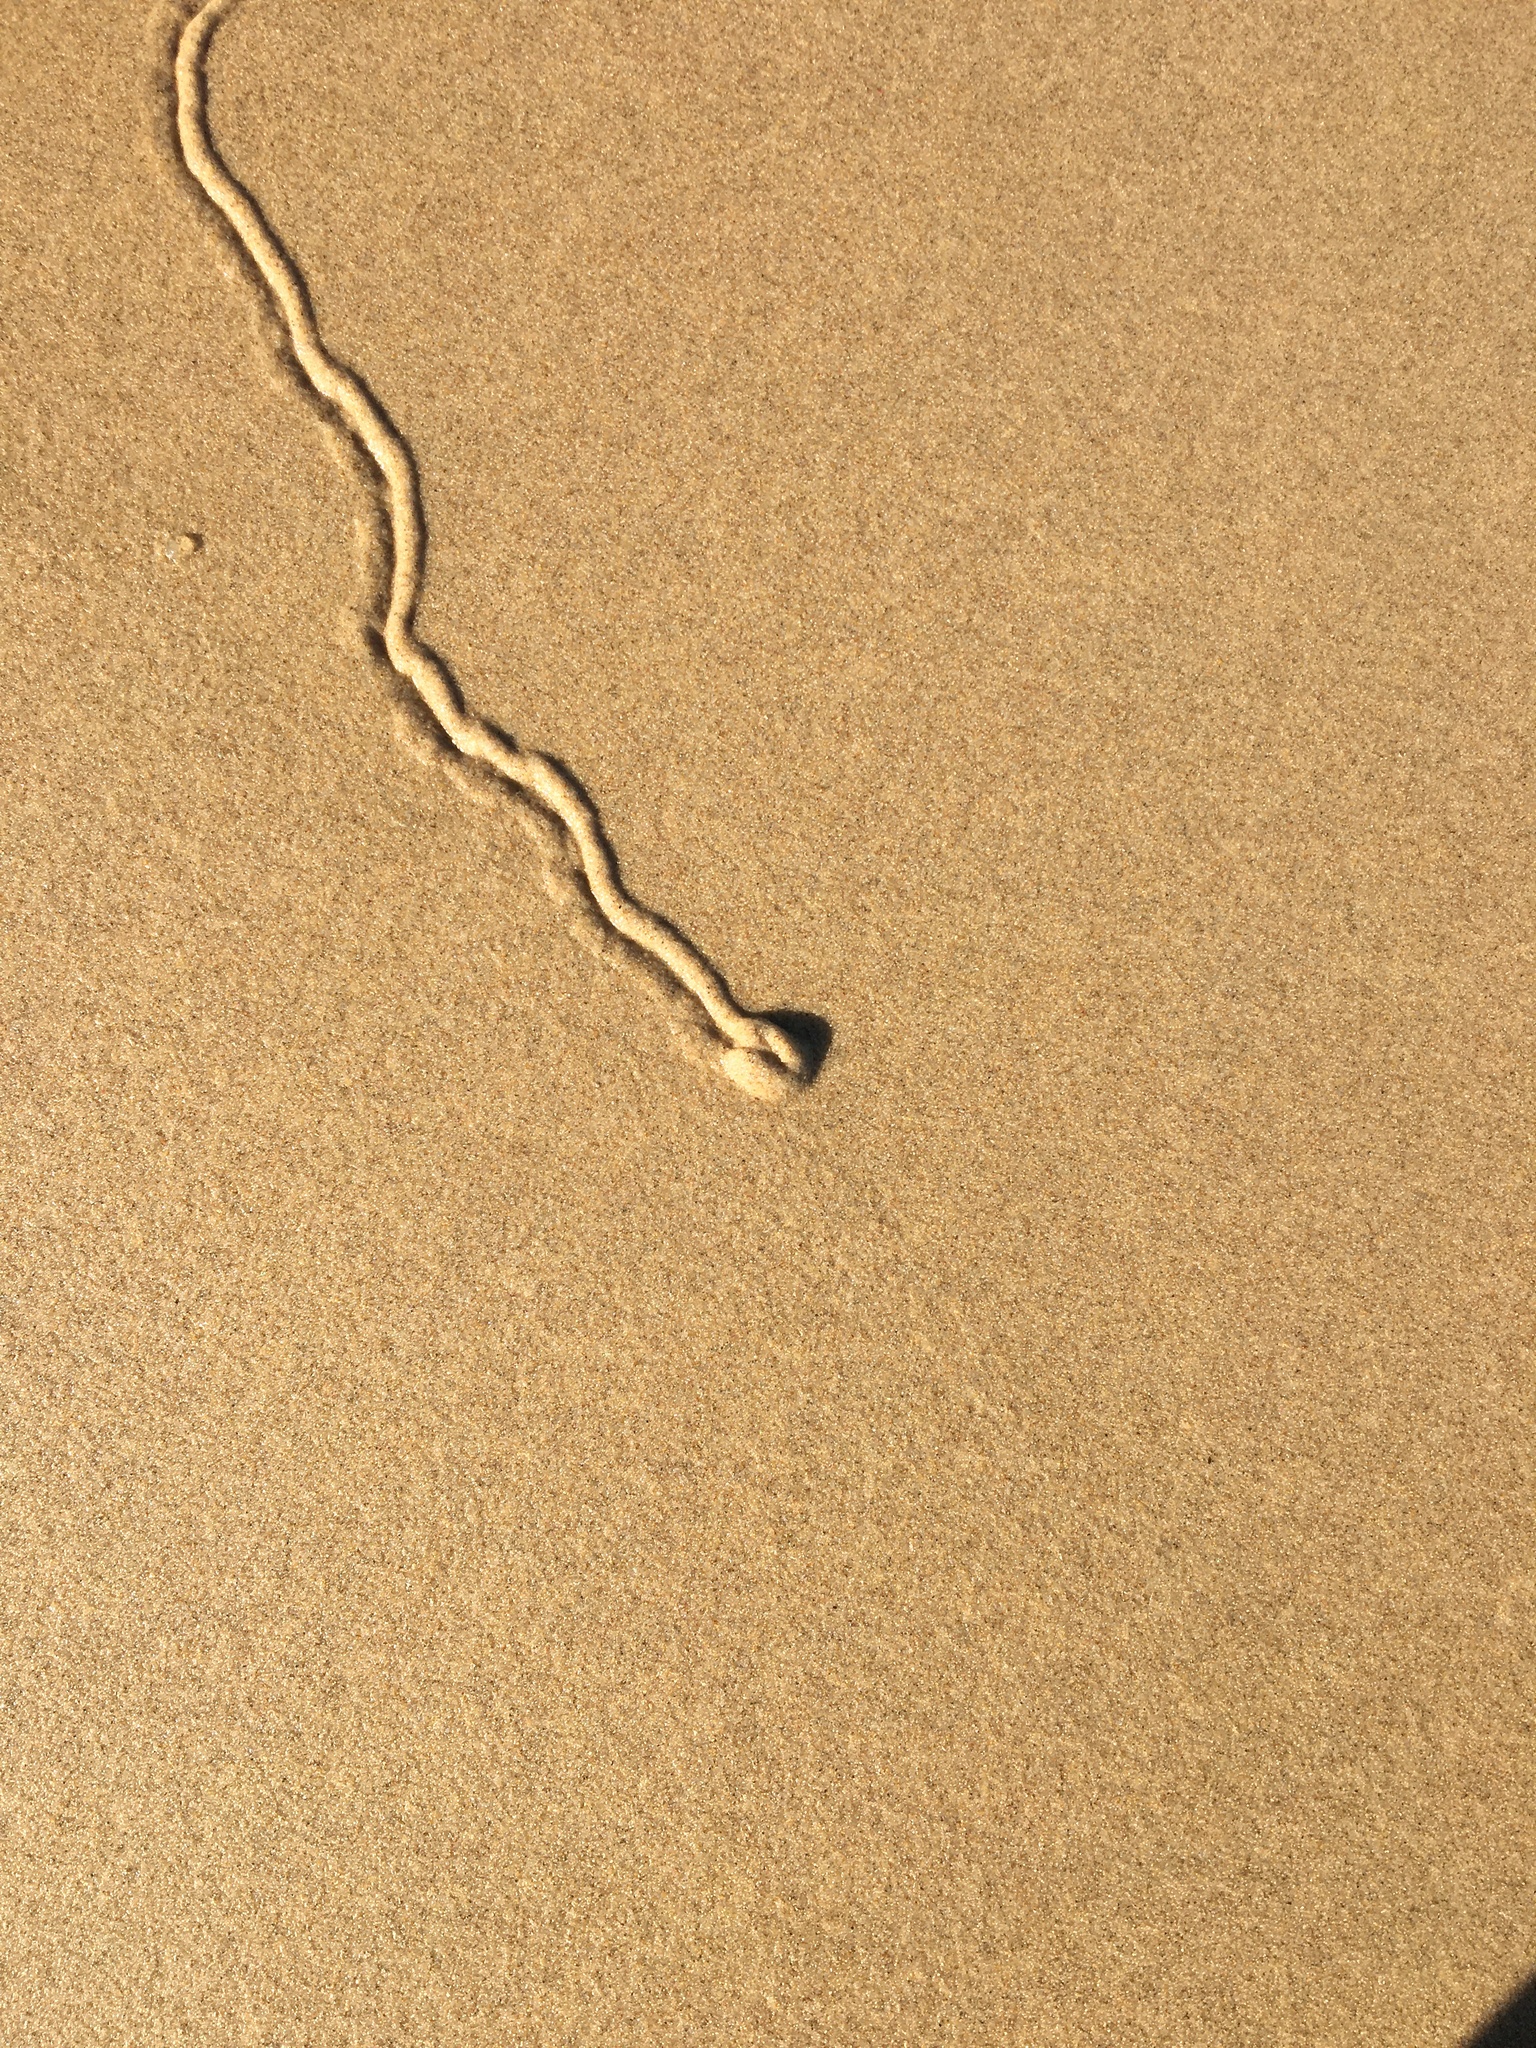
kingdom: Animalia
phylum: Mollusca
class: Gastropoda
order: Littorinimorpha
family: Naticidae
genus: Conuber
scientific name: Conuber incei
